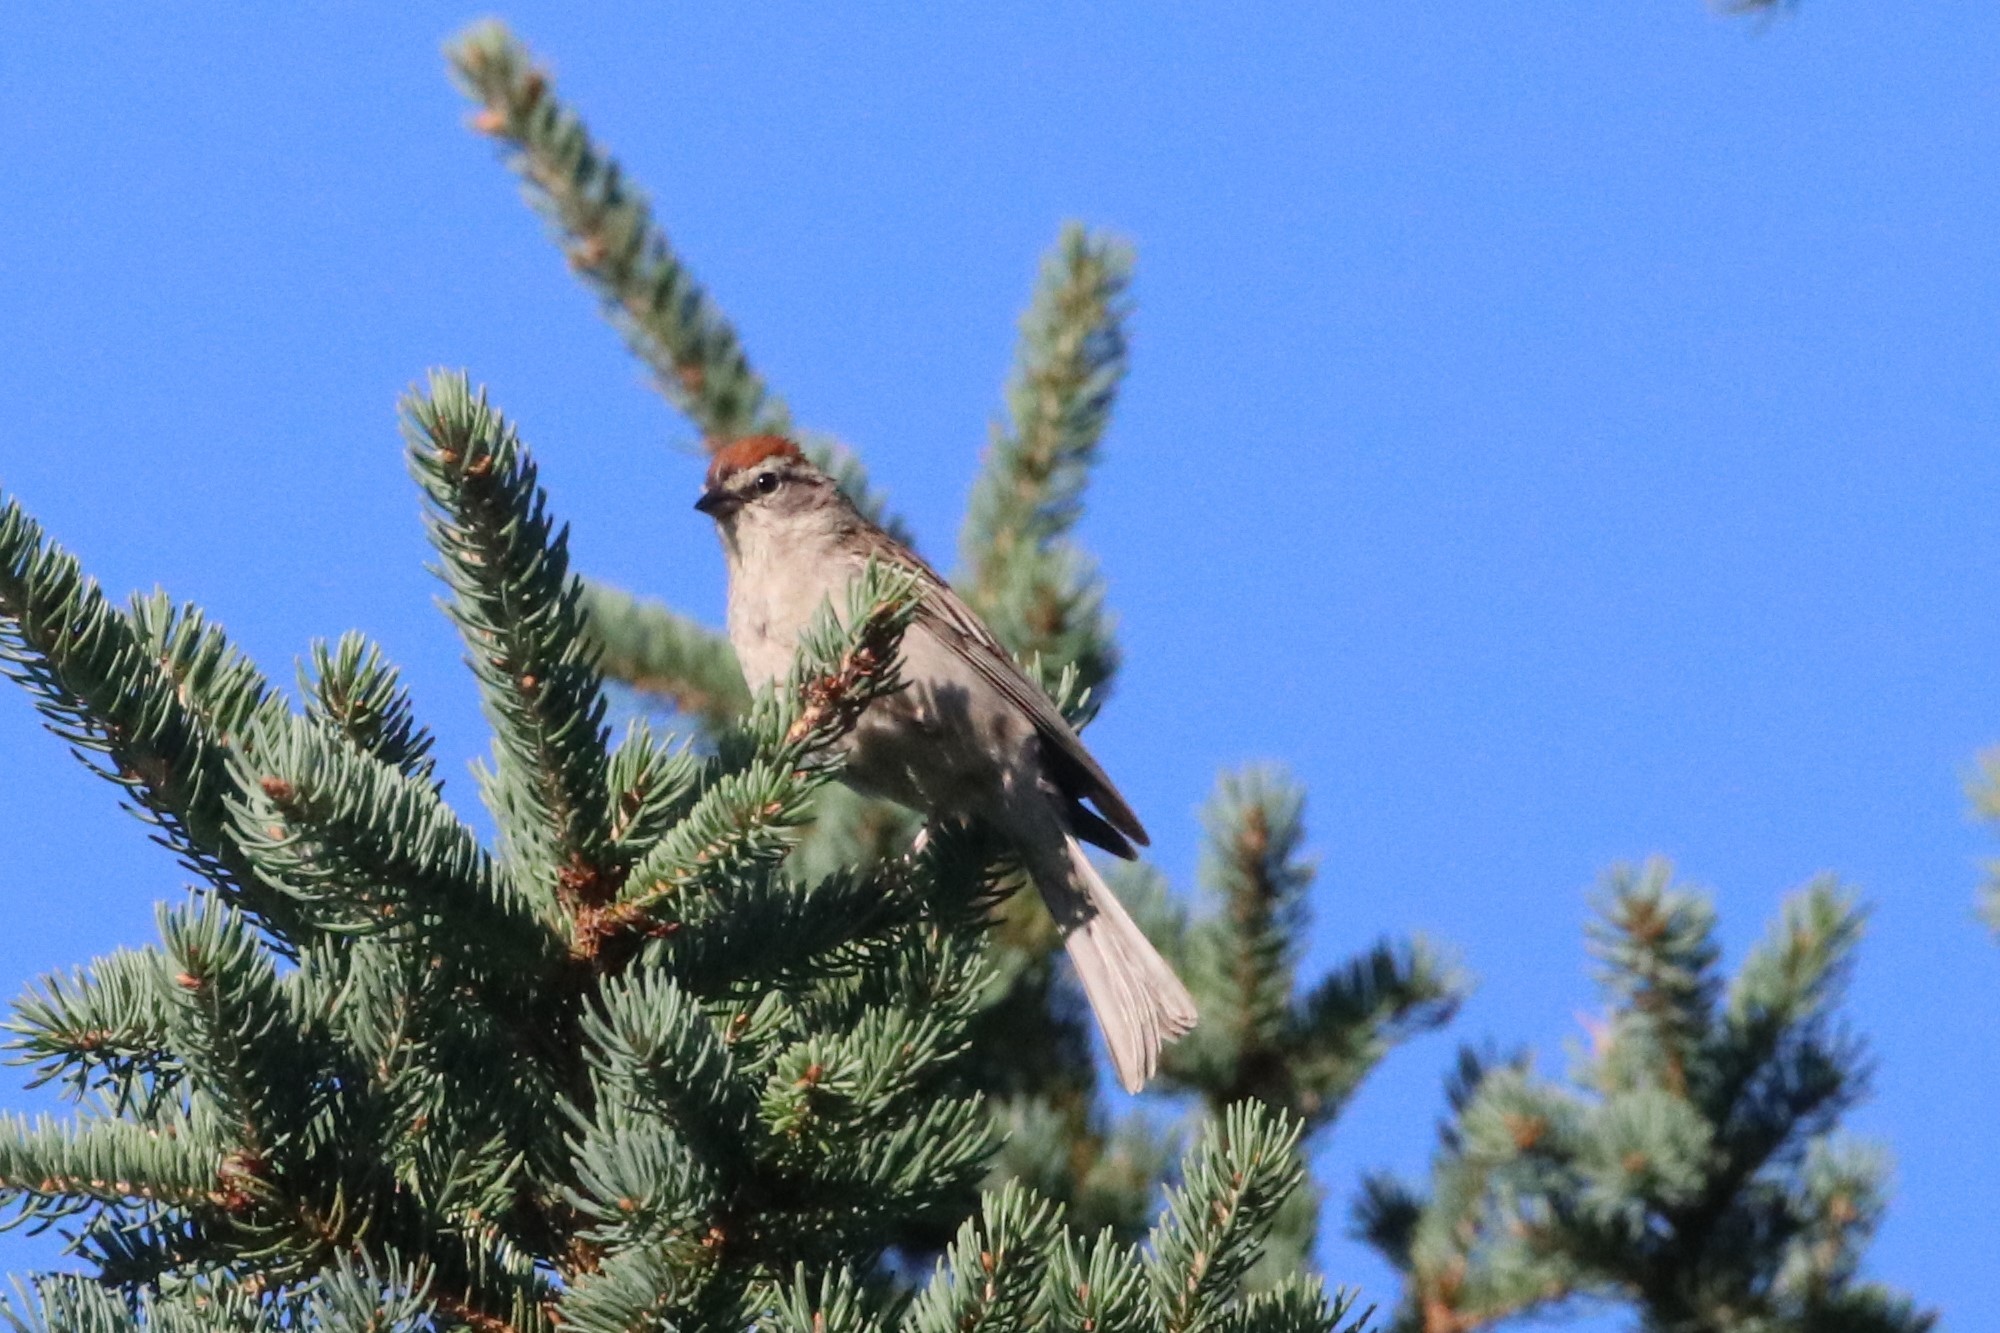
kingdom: Animalia
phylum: Chordata
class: Aves
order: Passeriformes
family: Passerellidae
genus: Spizella
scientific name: Spizella passerina
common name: Chipping sparrow
